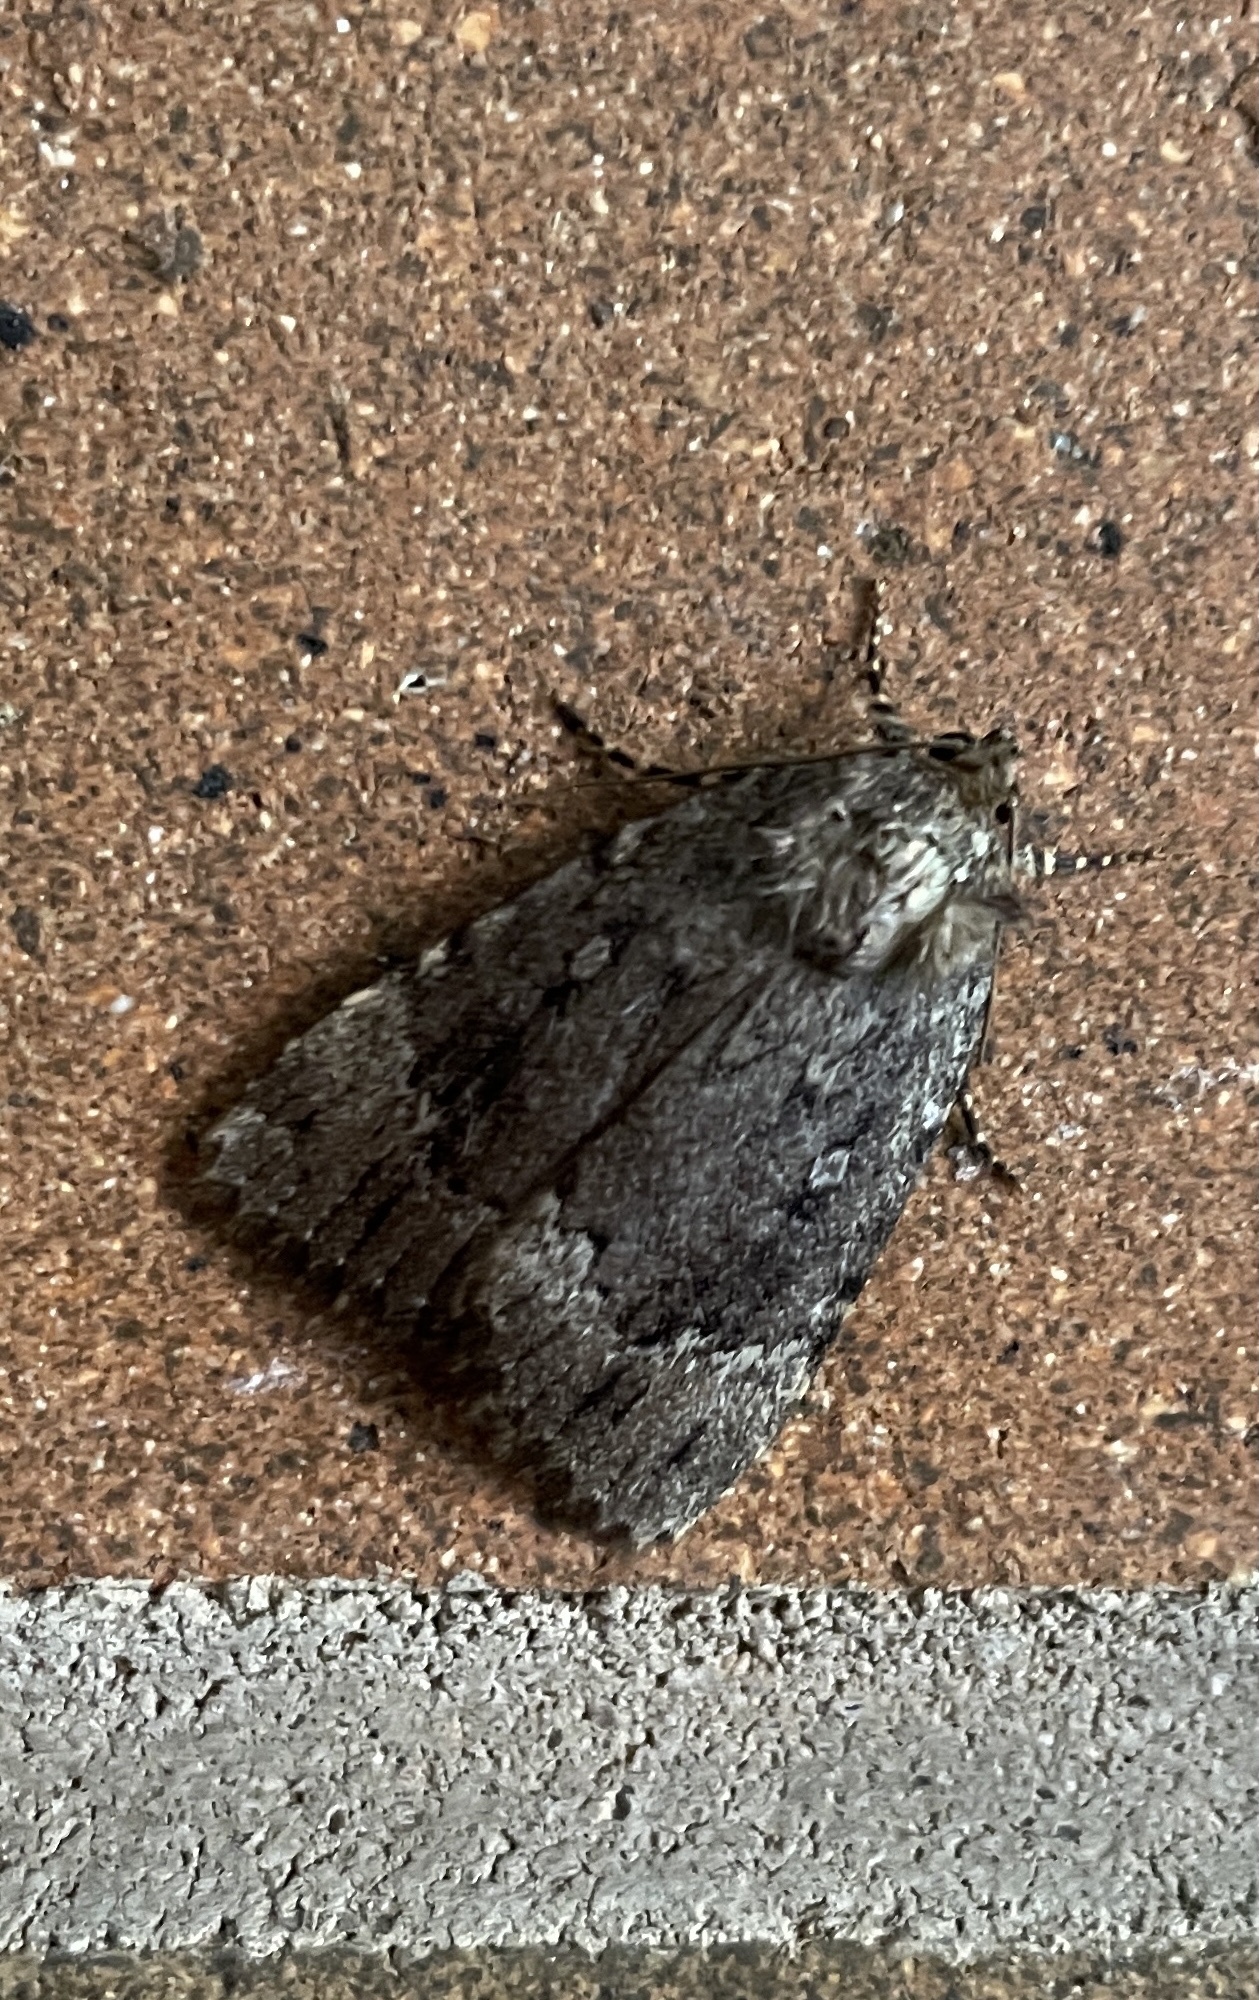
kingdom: Animalia
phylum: Arthropoda
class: Insecta
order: Lepidoptera
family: Noctuidae
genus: Amphipyra
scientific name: Amphipyra pyramidoides
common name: American copper underwing
